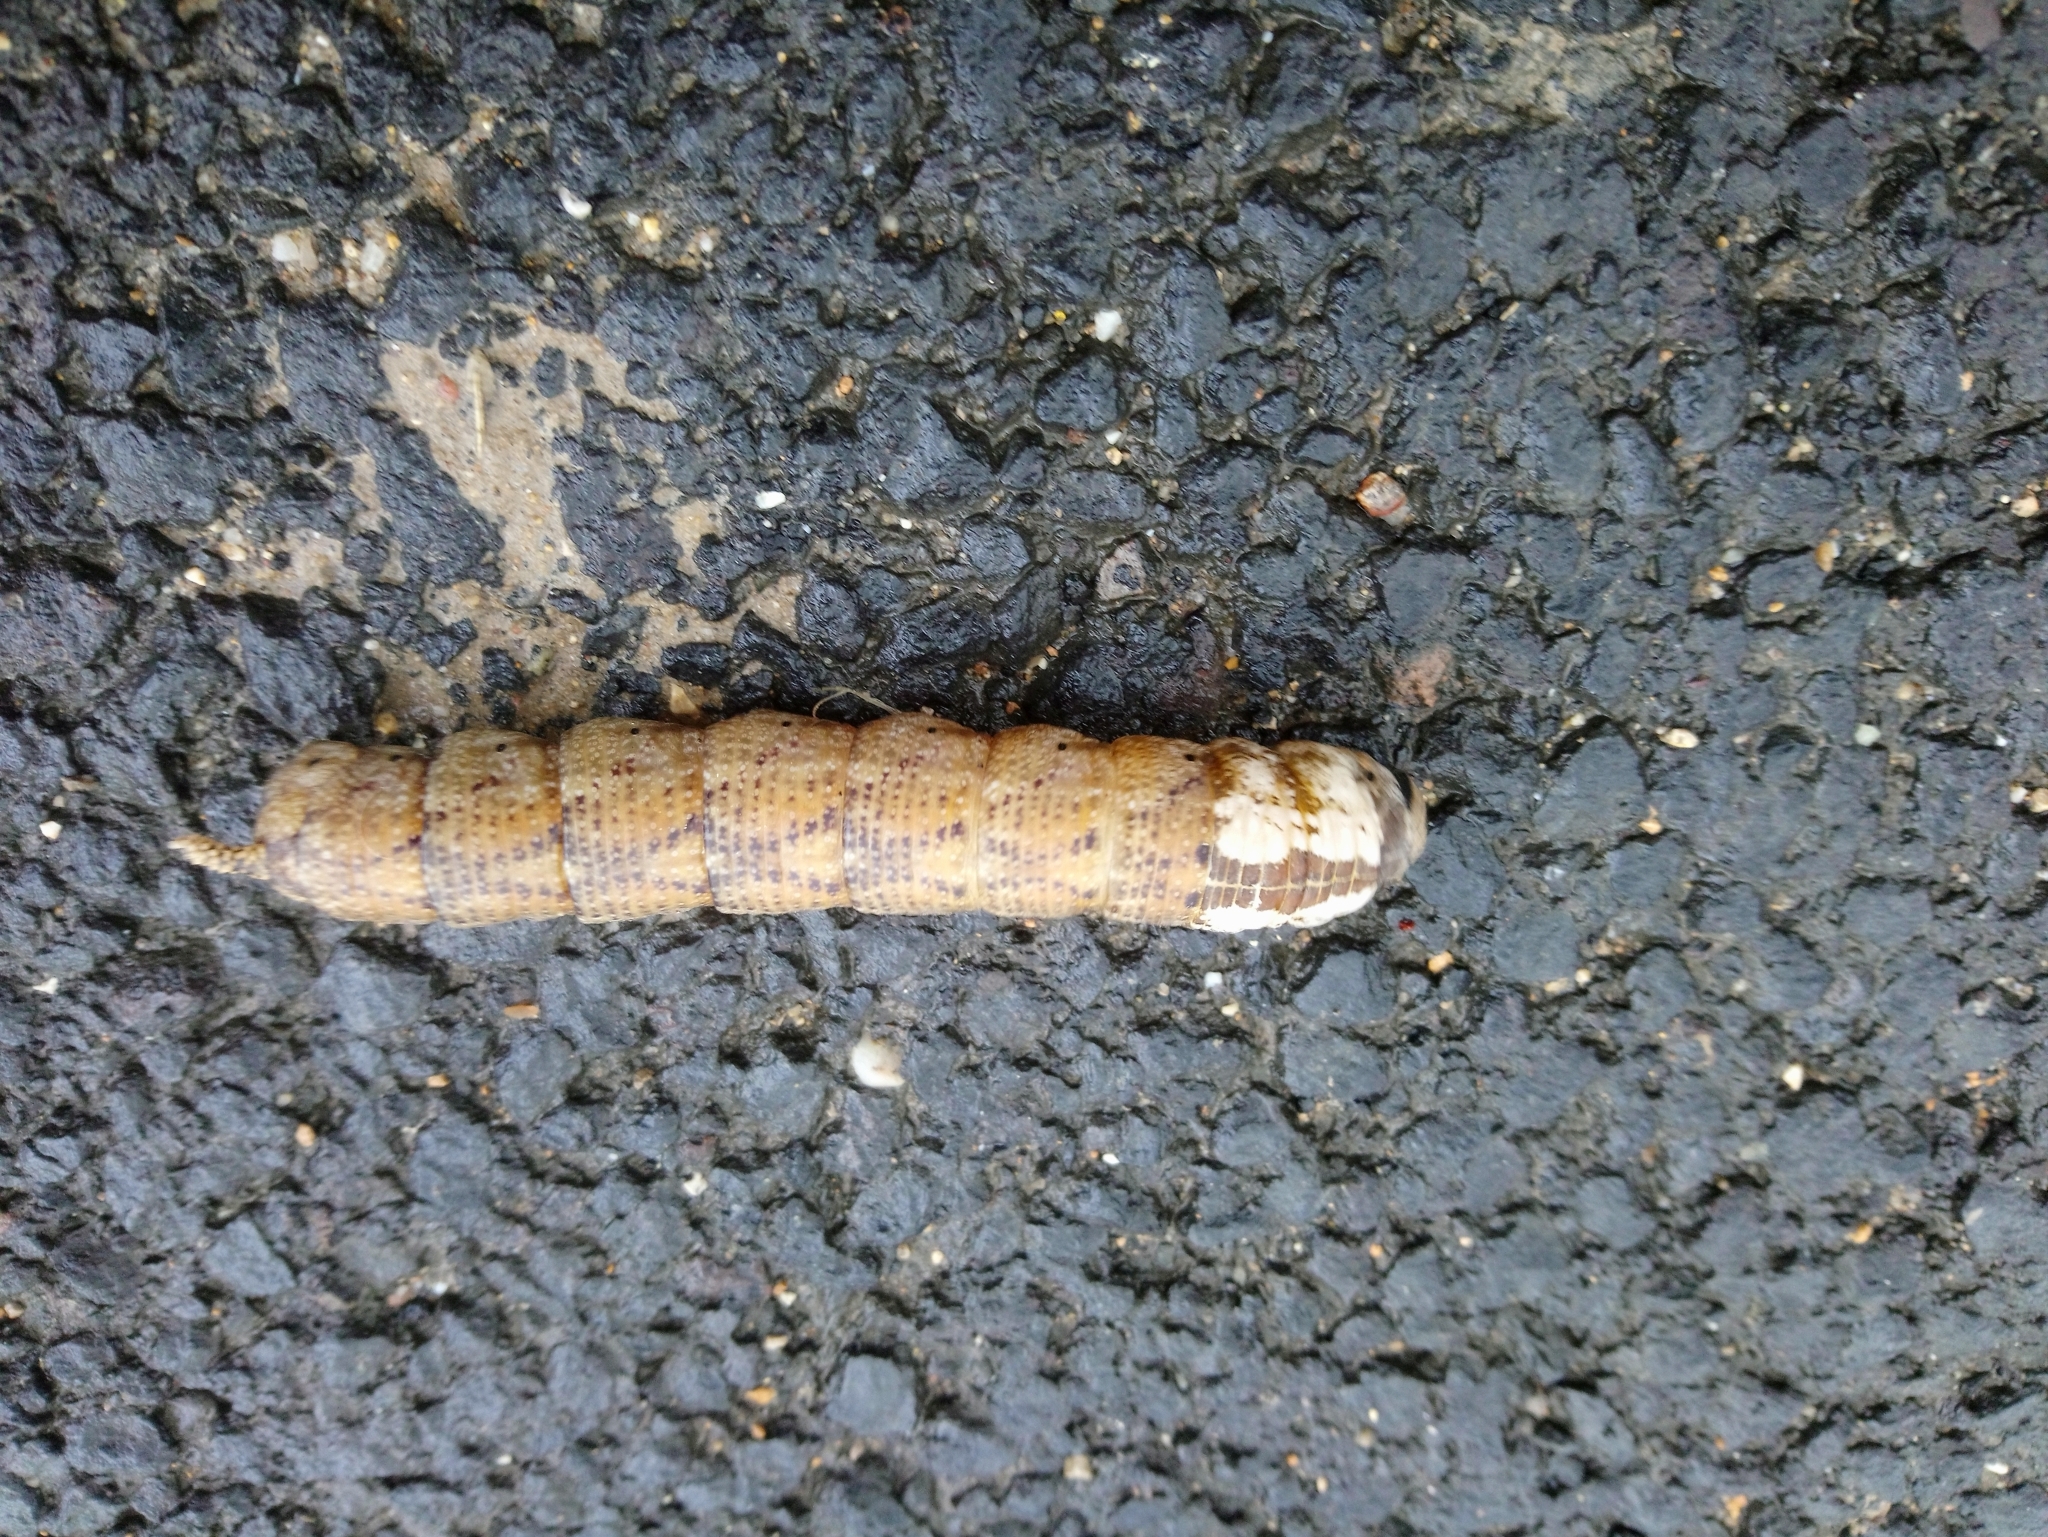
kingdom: Animalia
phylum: Arthropoda
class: Insecta
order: Lepidoptera
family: Sphingidae
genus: Acherontia
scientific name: Acherontia atropos
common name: Death's-head hawk moth
